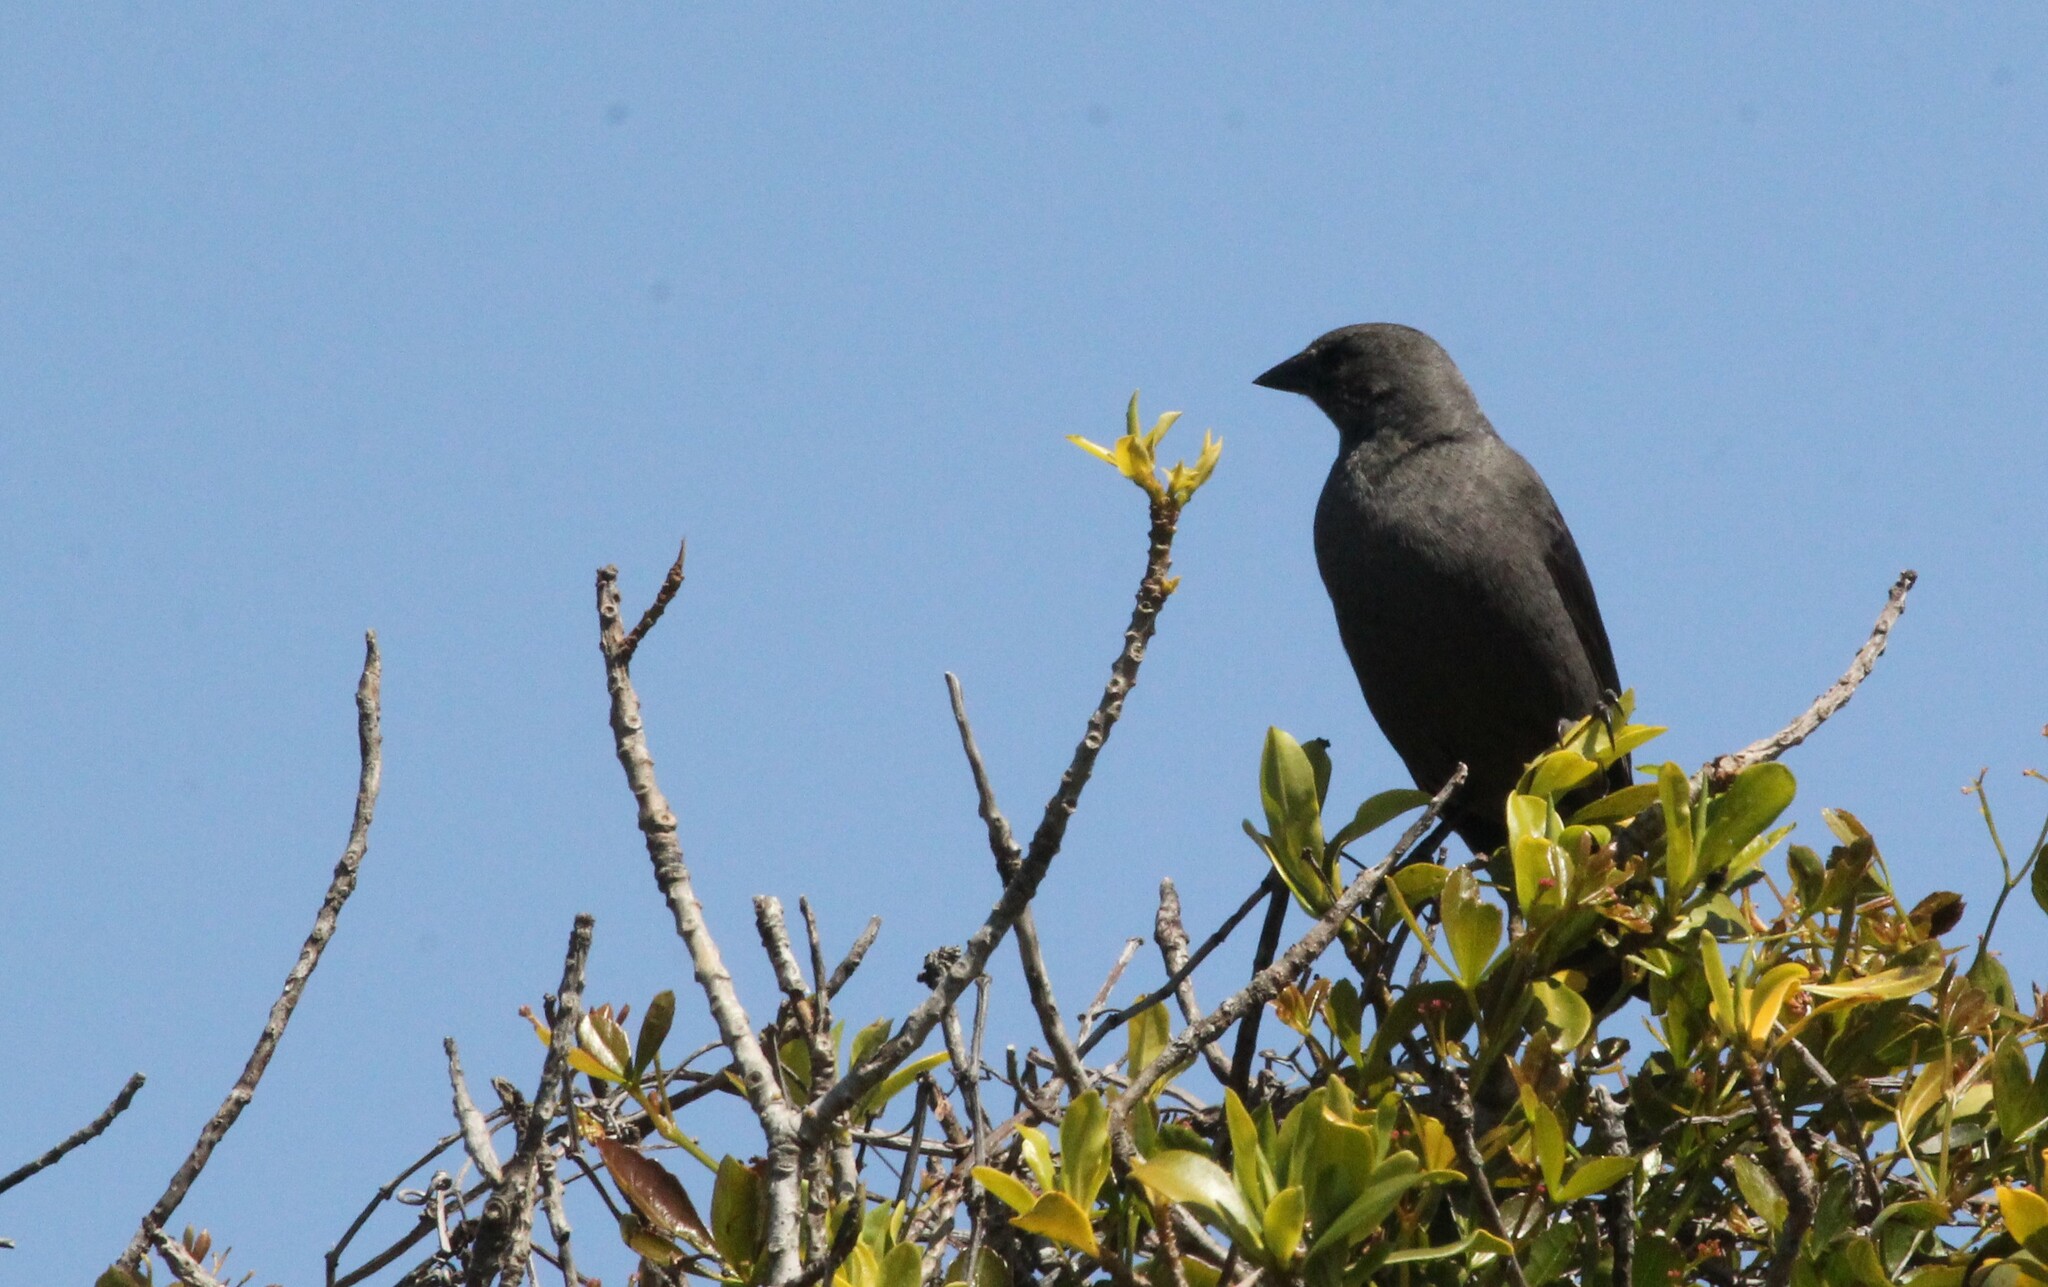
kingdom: Animalia
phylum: Chordata
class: Aves
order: Passeriformes
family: Icteridae
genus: Molothrus
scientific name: Molothrus bonariensis
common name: Shiny cowbird
